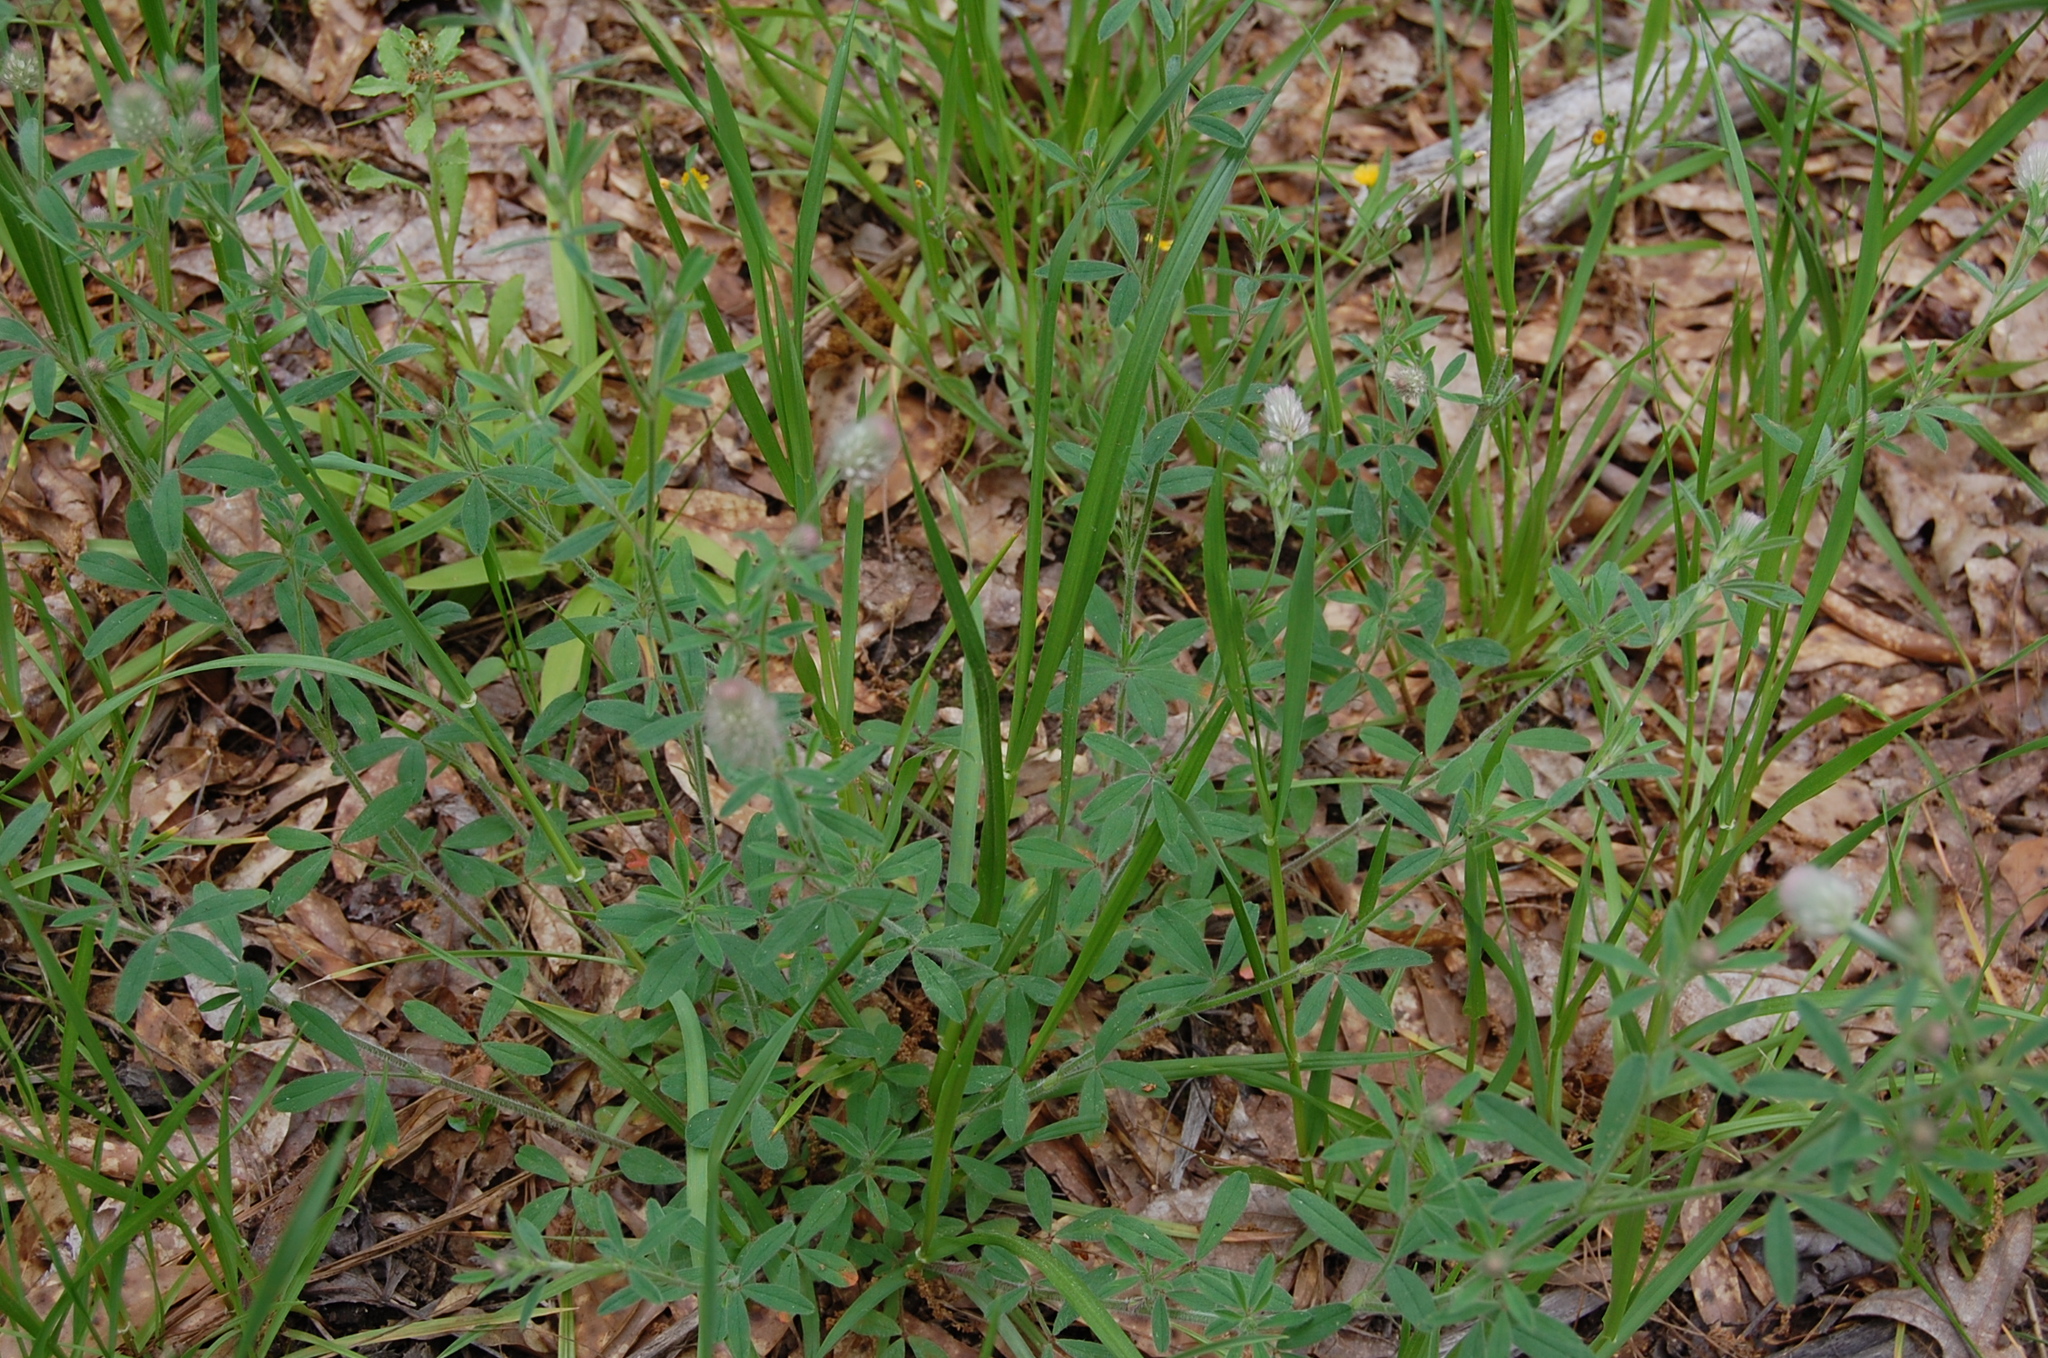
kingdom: Plantae
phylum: Tracheophyta
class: Magnoliopsida
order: Fabales
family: Fabaceae
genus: Trifolium
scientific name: Trifolium arvense
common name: Hare's-foot clover
